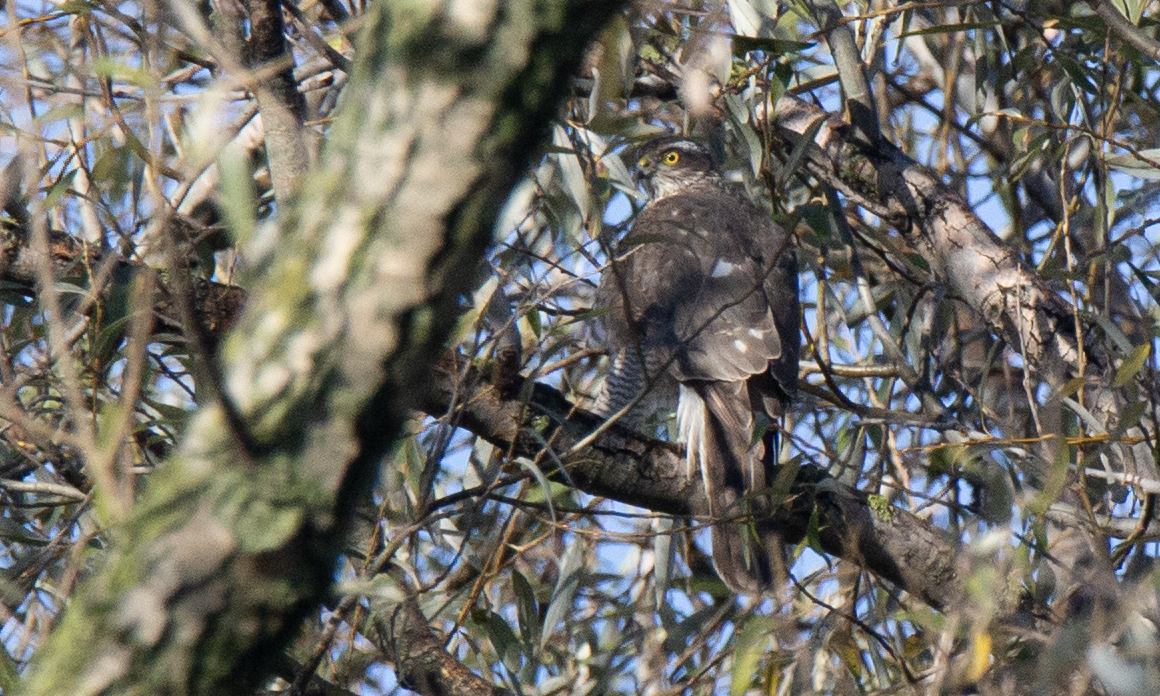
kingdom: Animalia
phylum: Chordata
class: Aves
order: Accipitriformes
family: Accipitridae
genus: Accipiter
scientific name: Accipiter nisus
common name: Eurasian sparrowhawk
